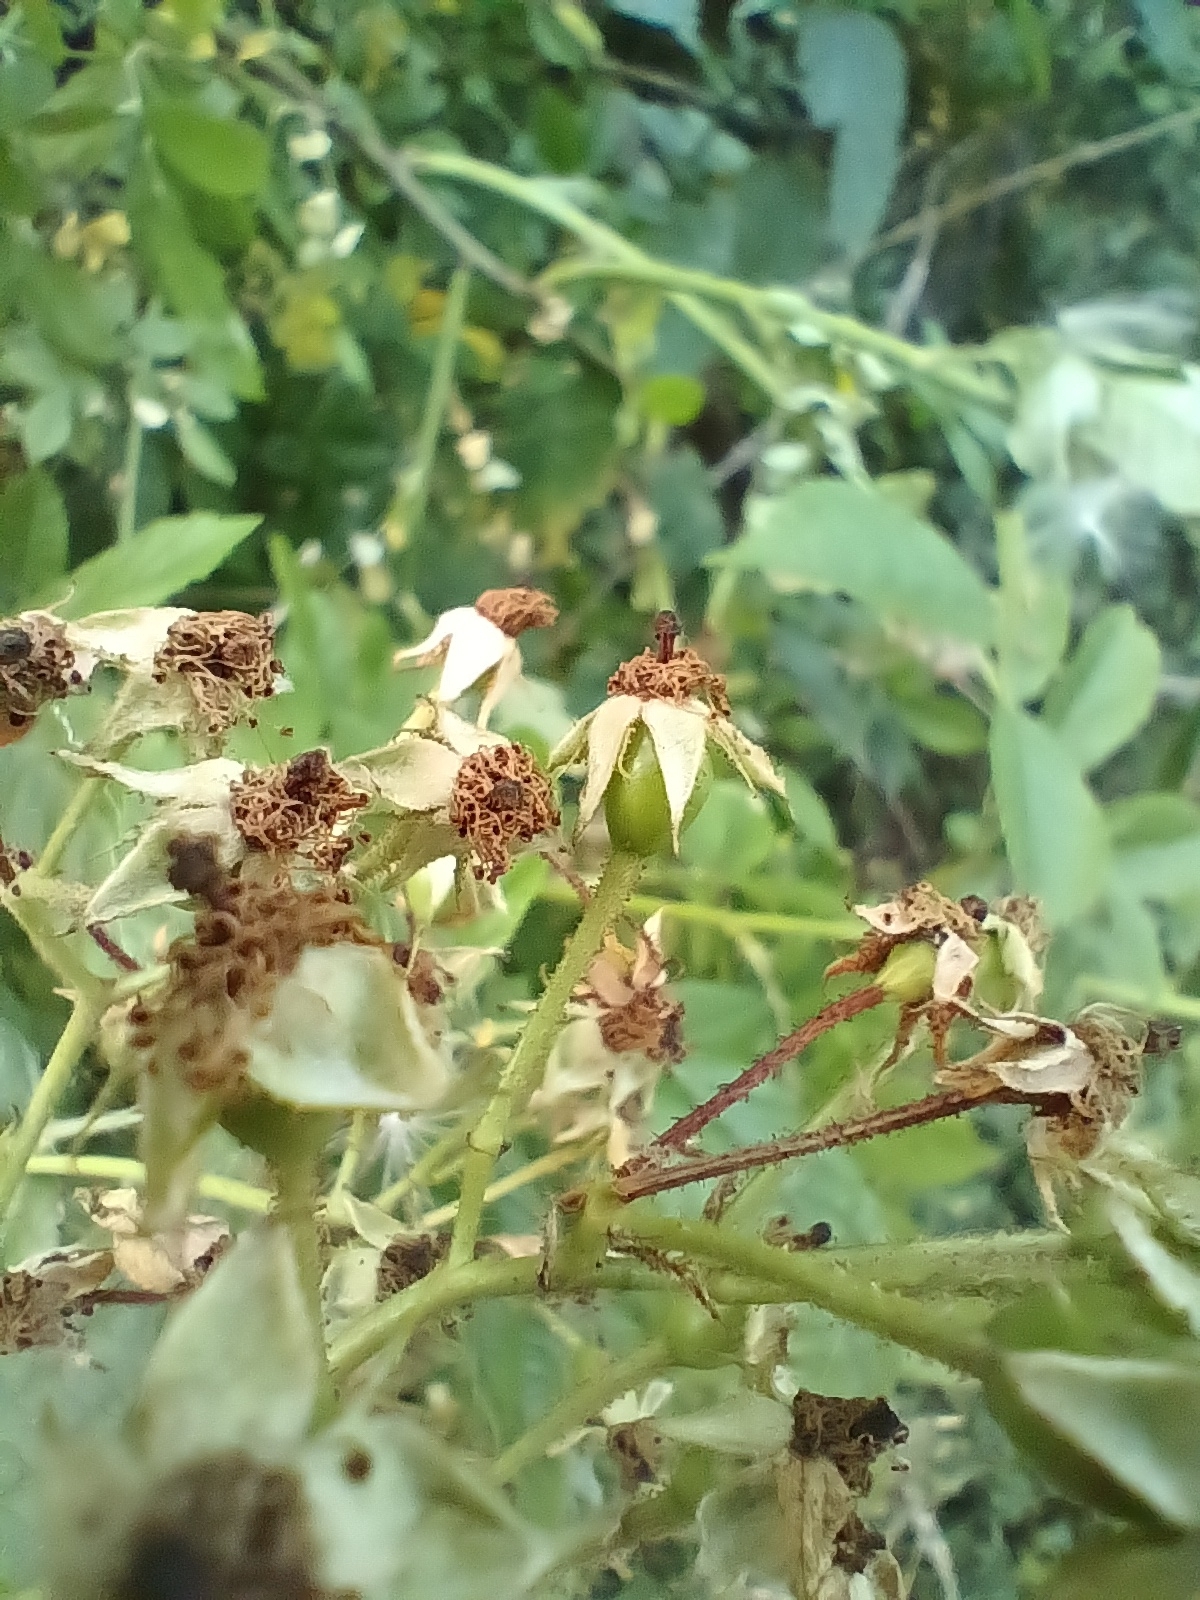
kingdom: Plantae
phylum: Tracheophyta
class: Magnoliopsida
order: Rosales
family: Rosaceae
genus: Rosa
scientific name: Rosa multiflora
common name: Multiflora rose
